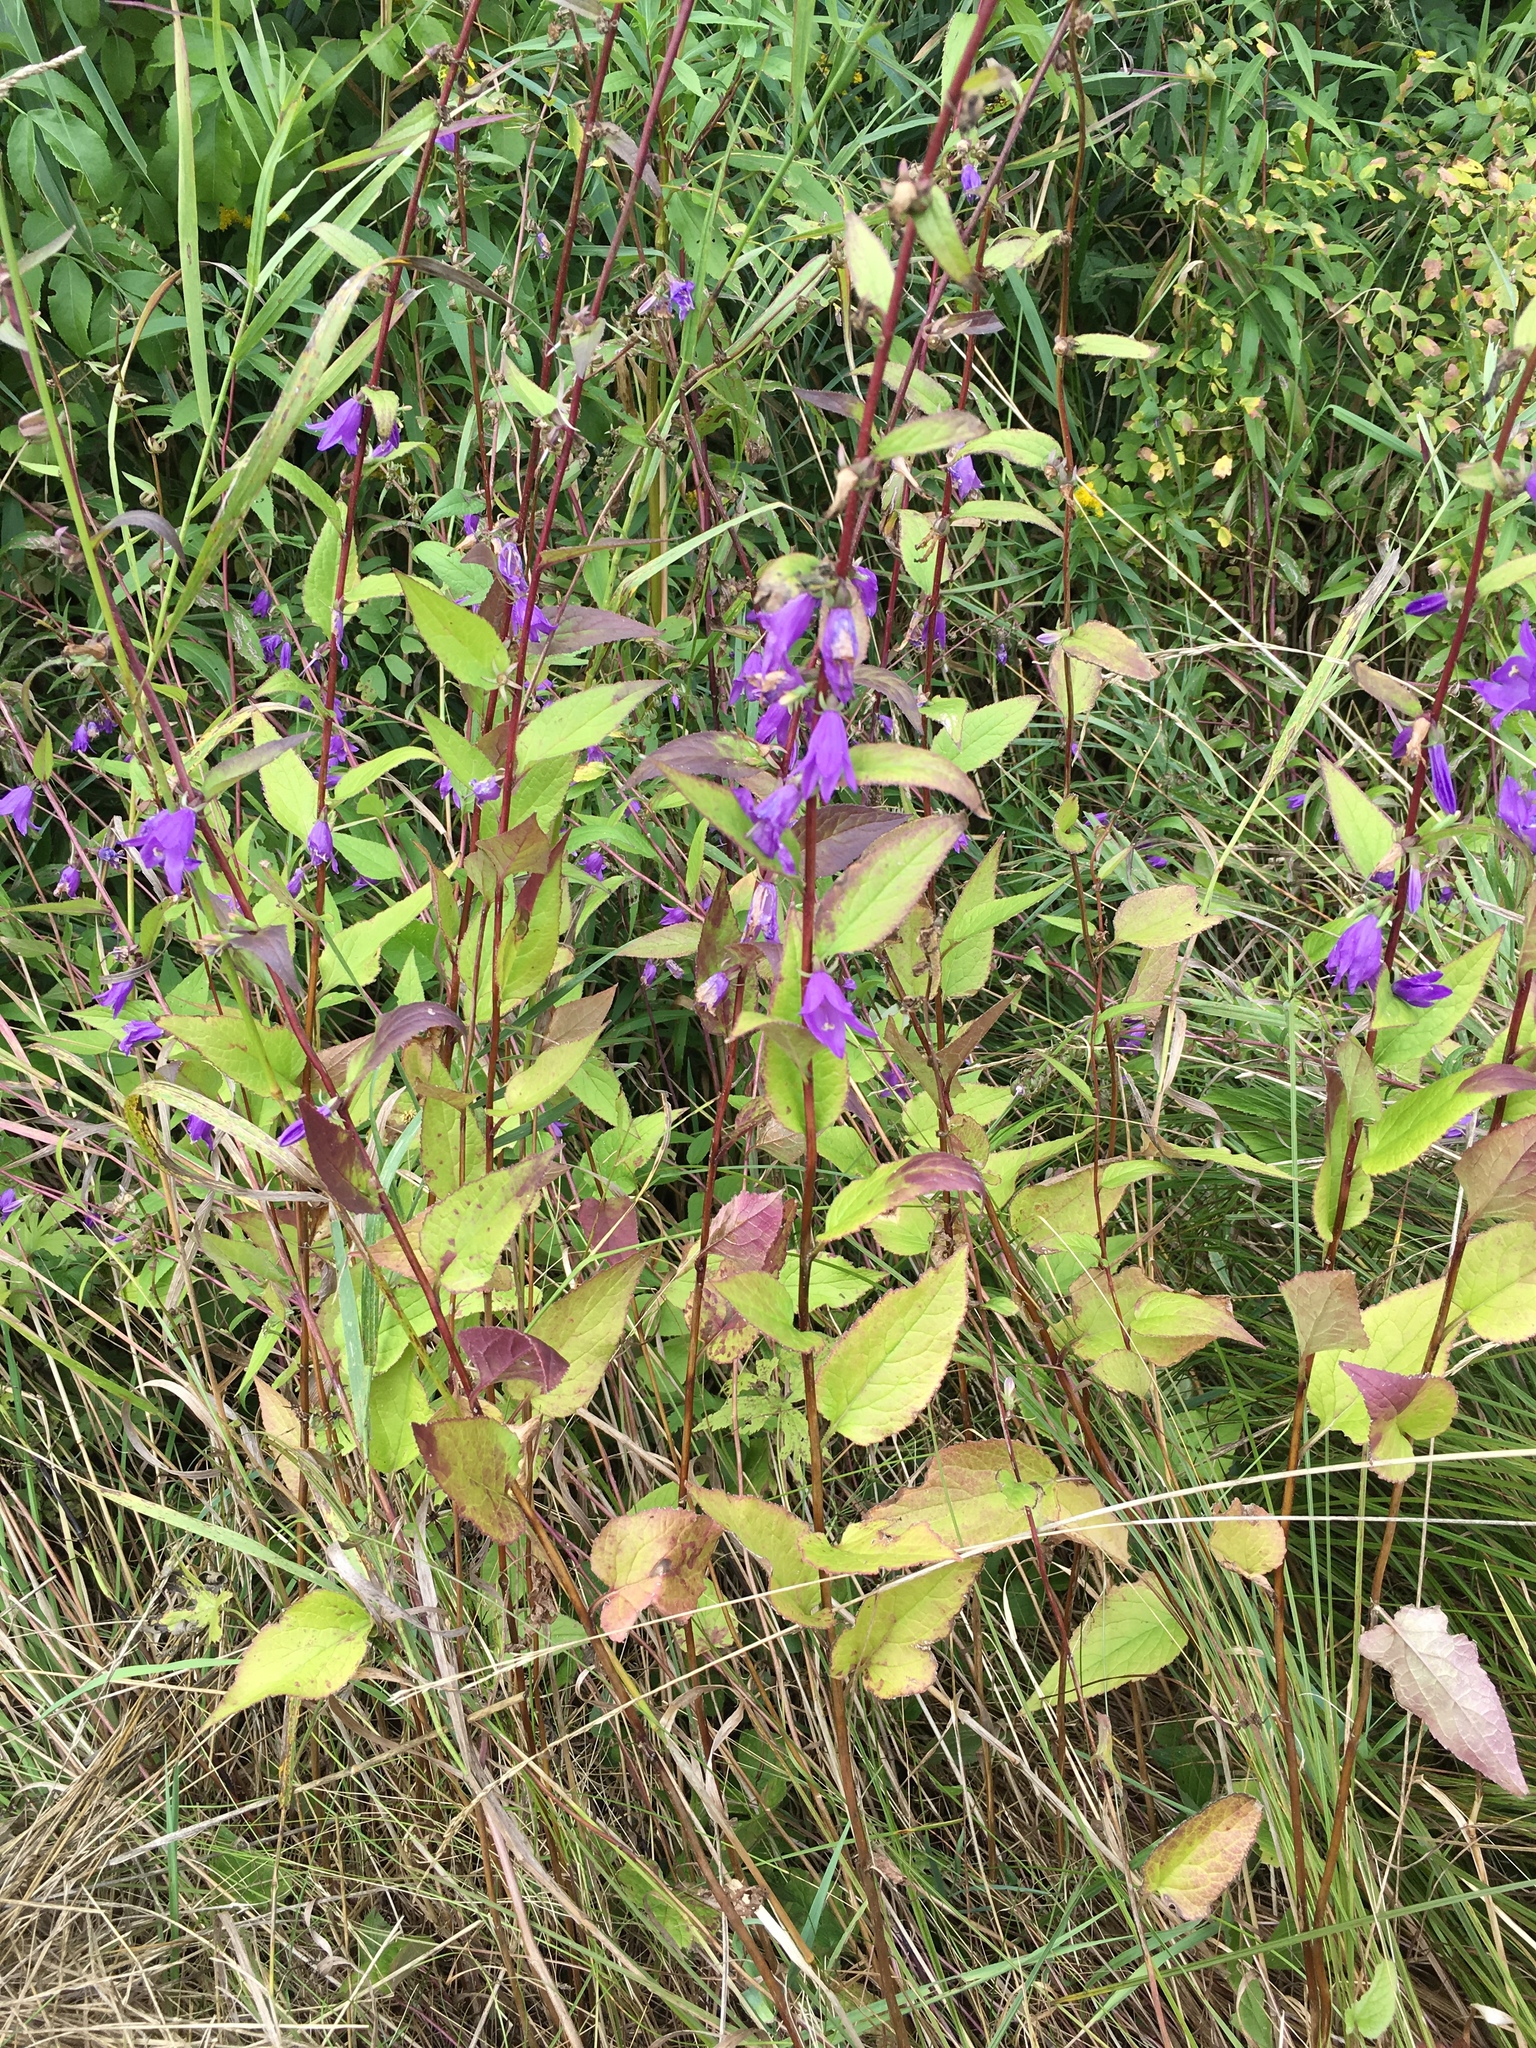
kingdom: Plantae
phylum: Tracheophyta
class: Magnoliopsida
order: Asterales
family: Campanulaceae
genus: Campanula
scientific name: Campanula rapunculoides
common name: Creeping bellflower
